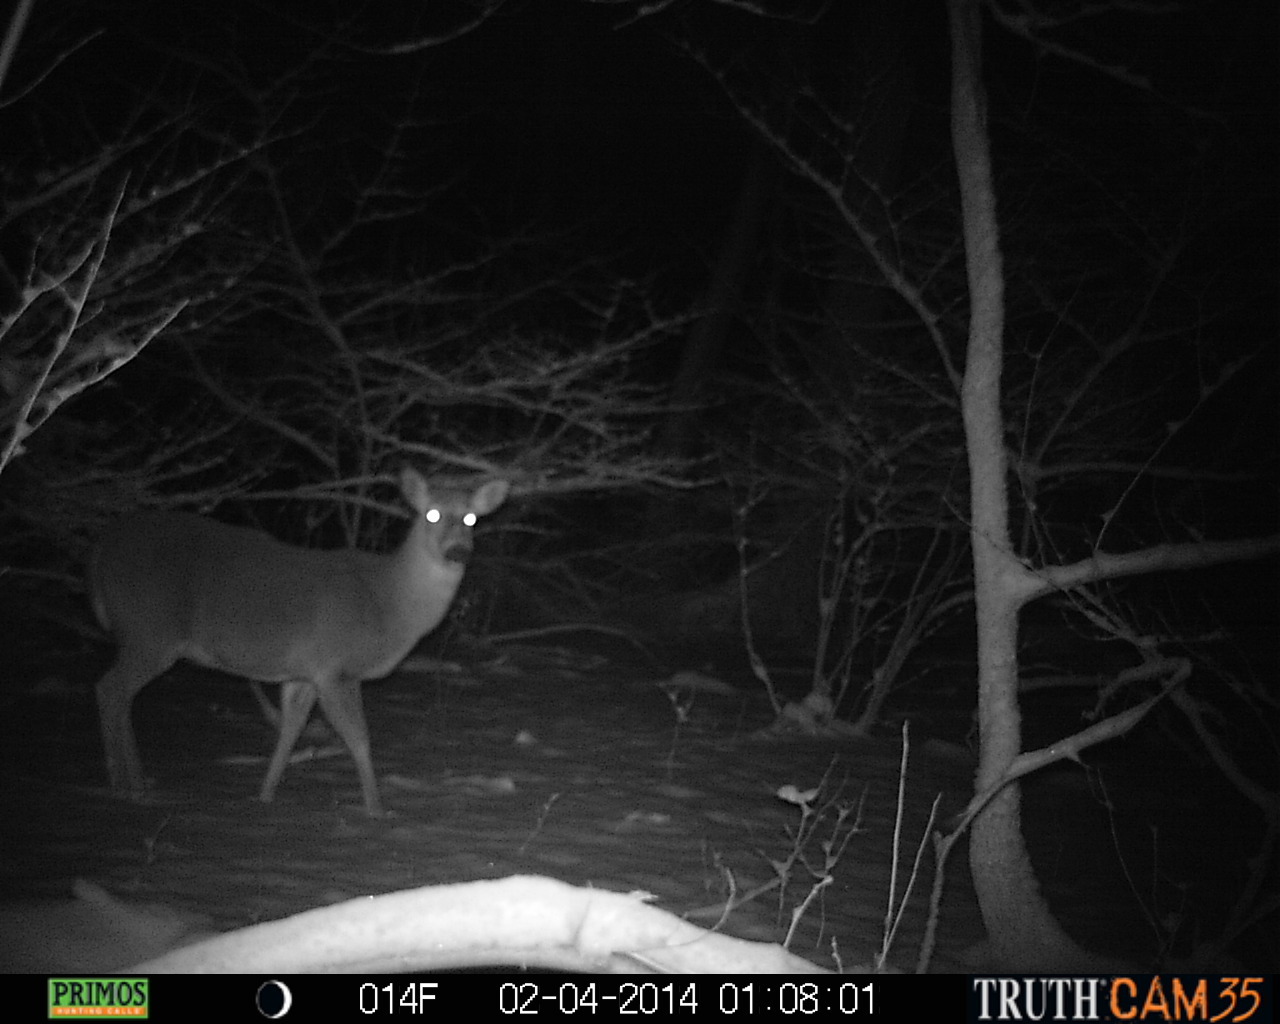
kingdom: Animalia
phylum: Chordata
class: Mammalia
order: Artiodactyla
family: Cervidae
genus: Odocoileus
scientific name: Odocoileus virginianus
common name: White-tailed deer
